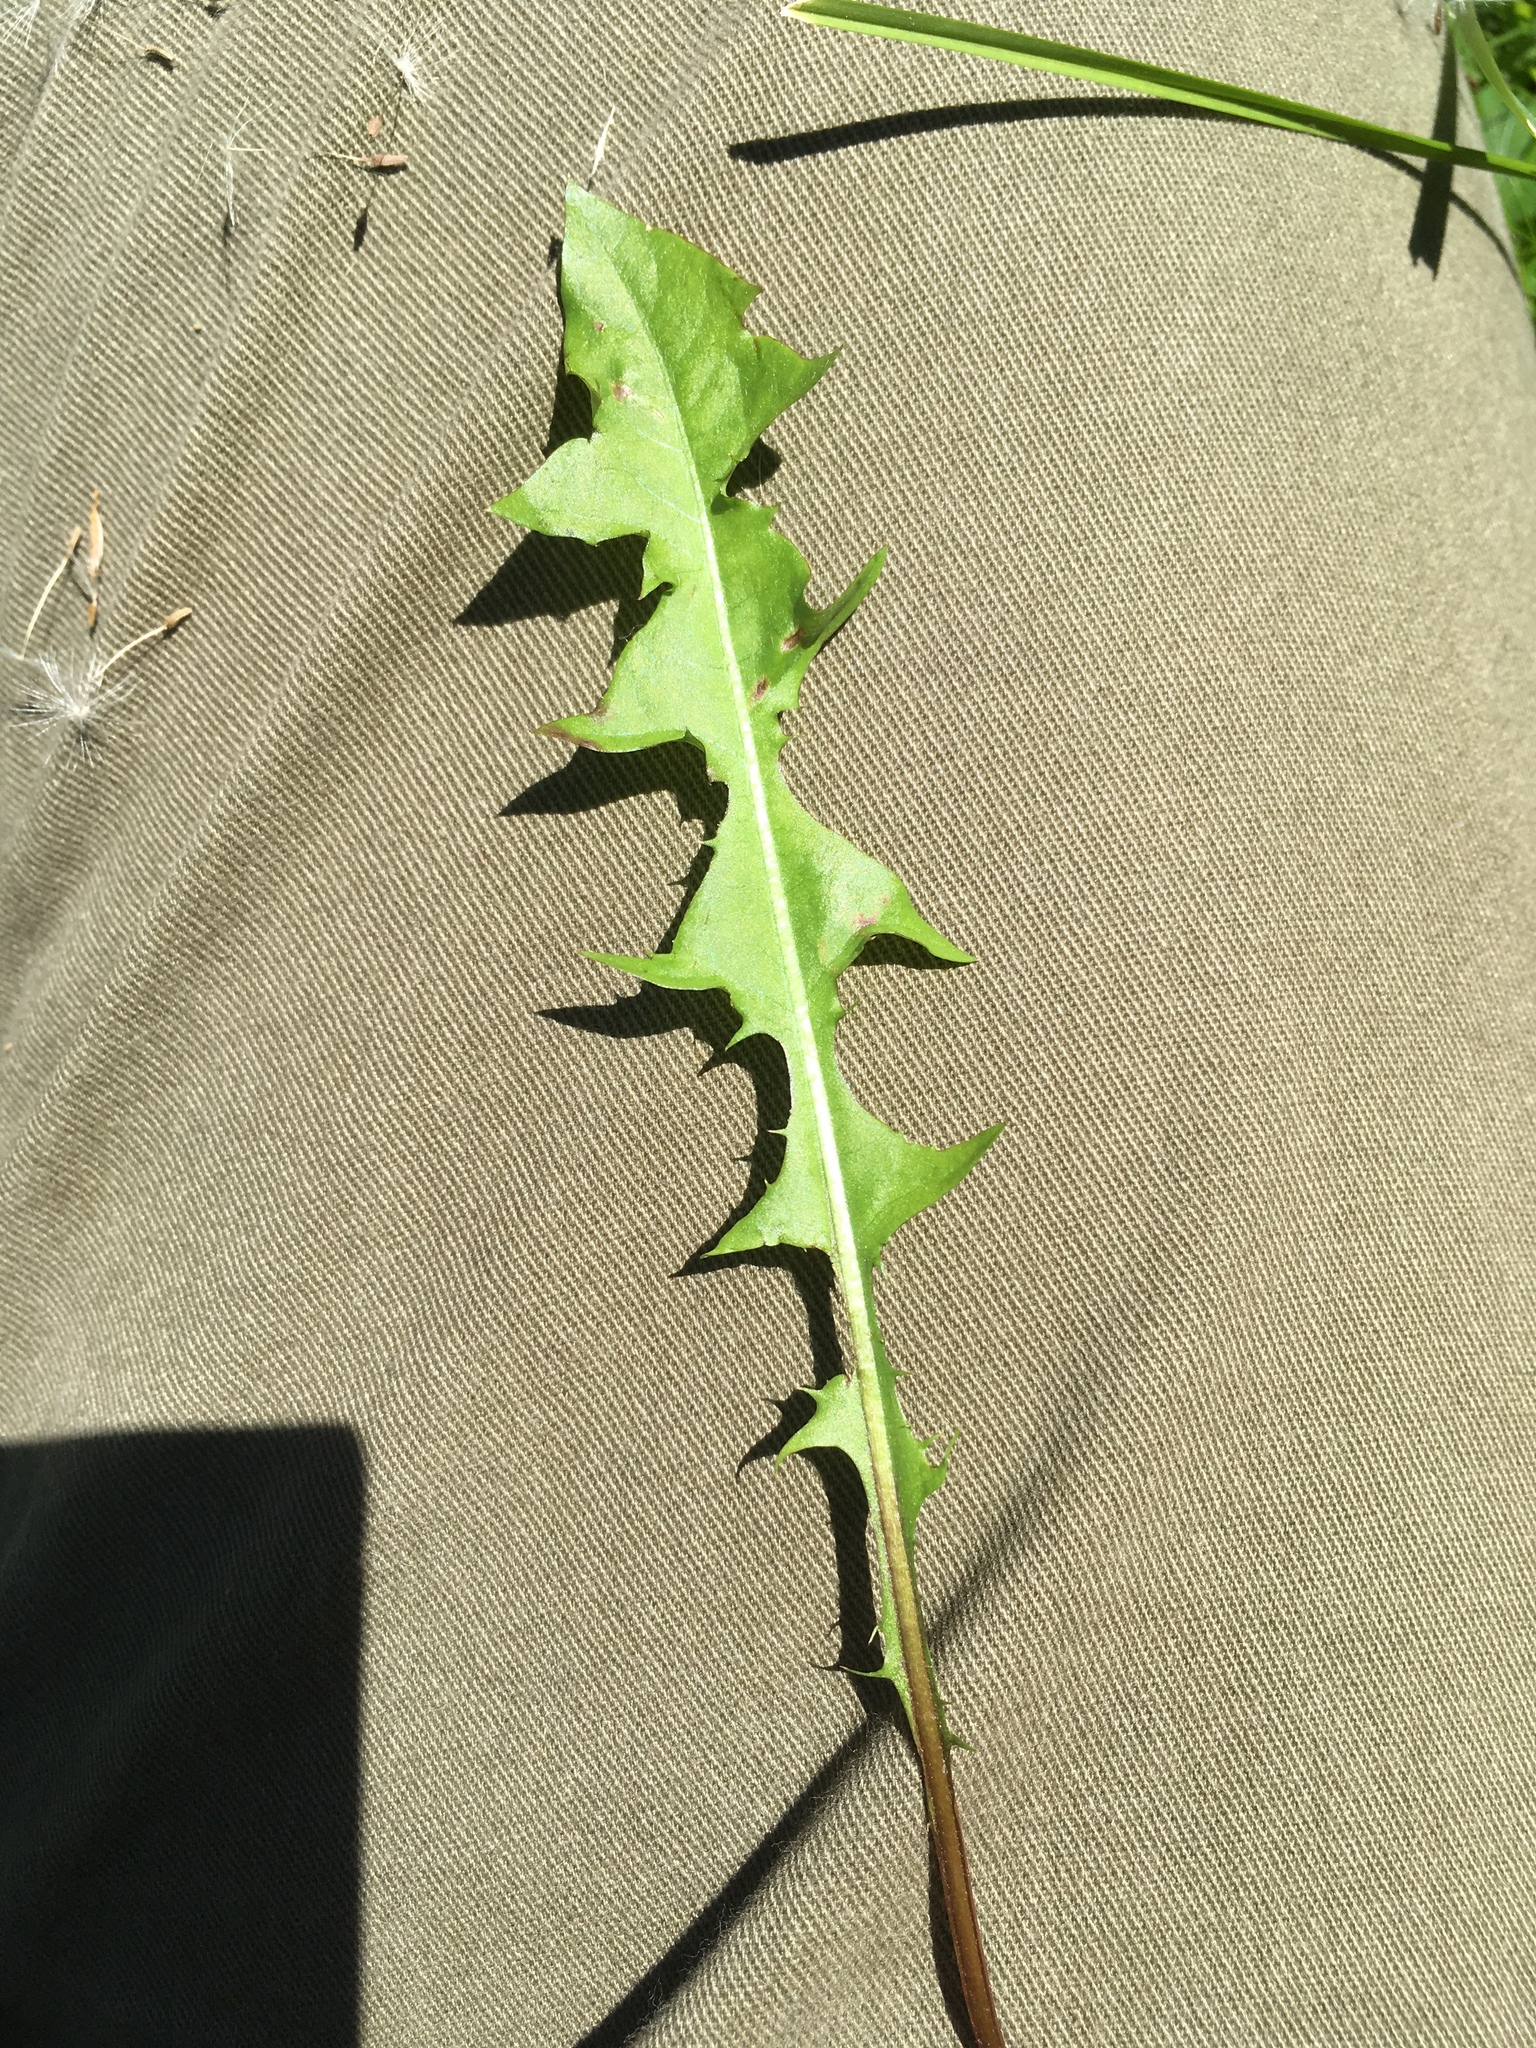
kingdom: Plantae
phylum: Tracheophyta
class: Magnoliopsida
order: Asterales
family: Asteraceae
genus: Taraxacum
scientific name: Taraxacum erythrospermum
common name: Rock dandelion
